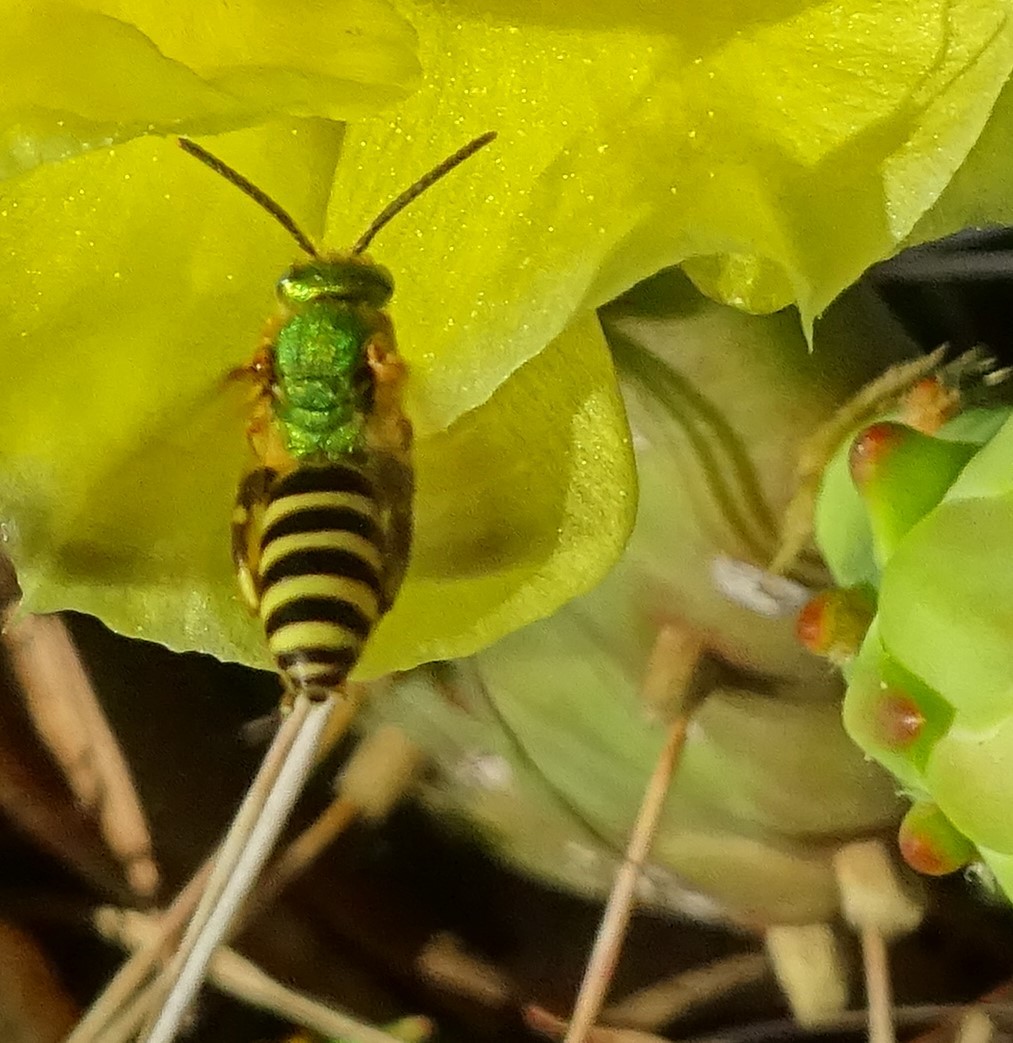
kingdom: Animalia
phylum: Arthropoda
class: Insecta
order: Hymenoptera
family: Halictidae
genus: Agapostemon
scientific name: Agapostemon splendens
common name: Brown-winged striped sweat bee
